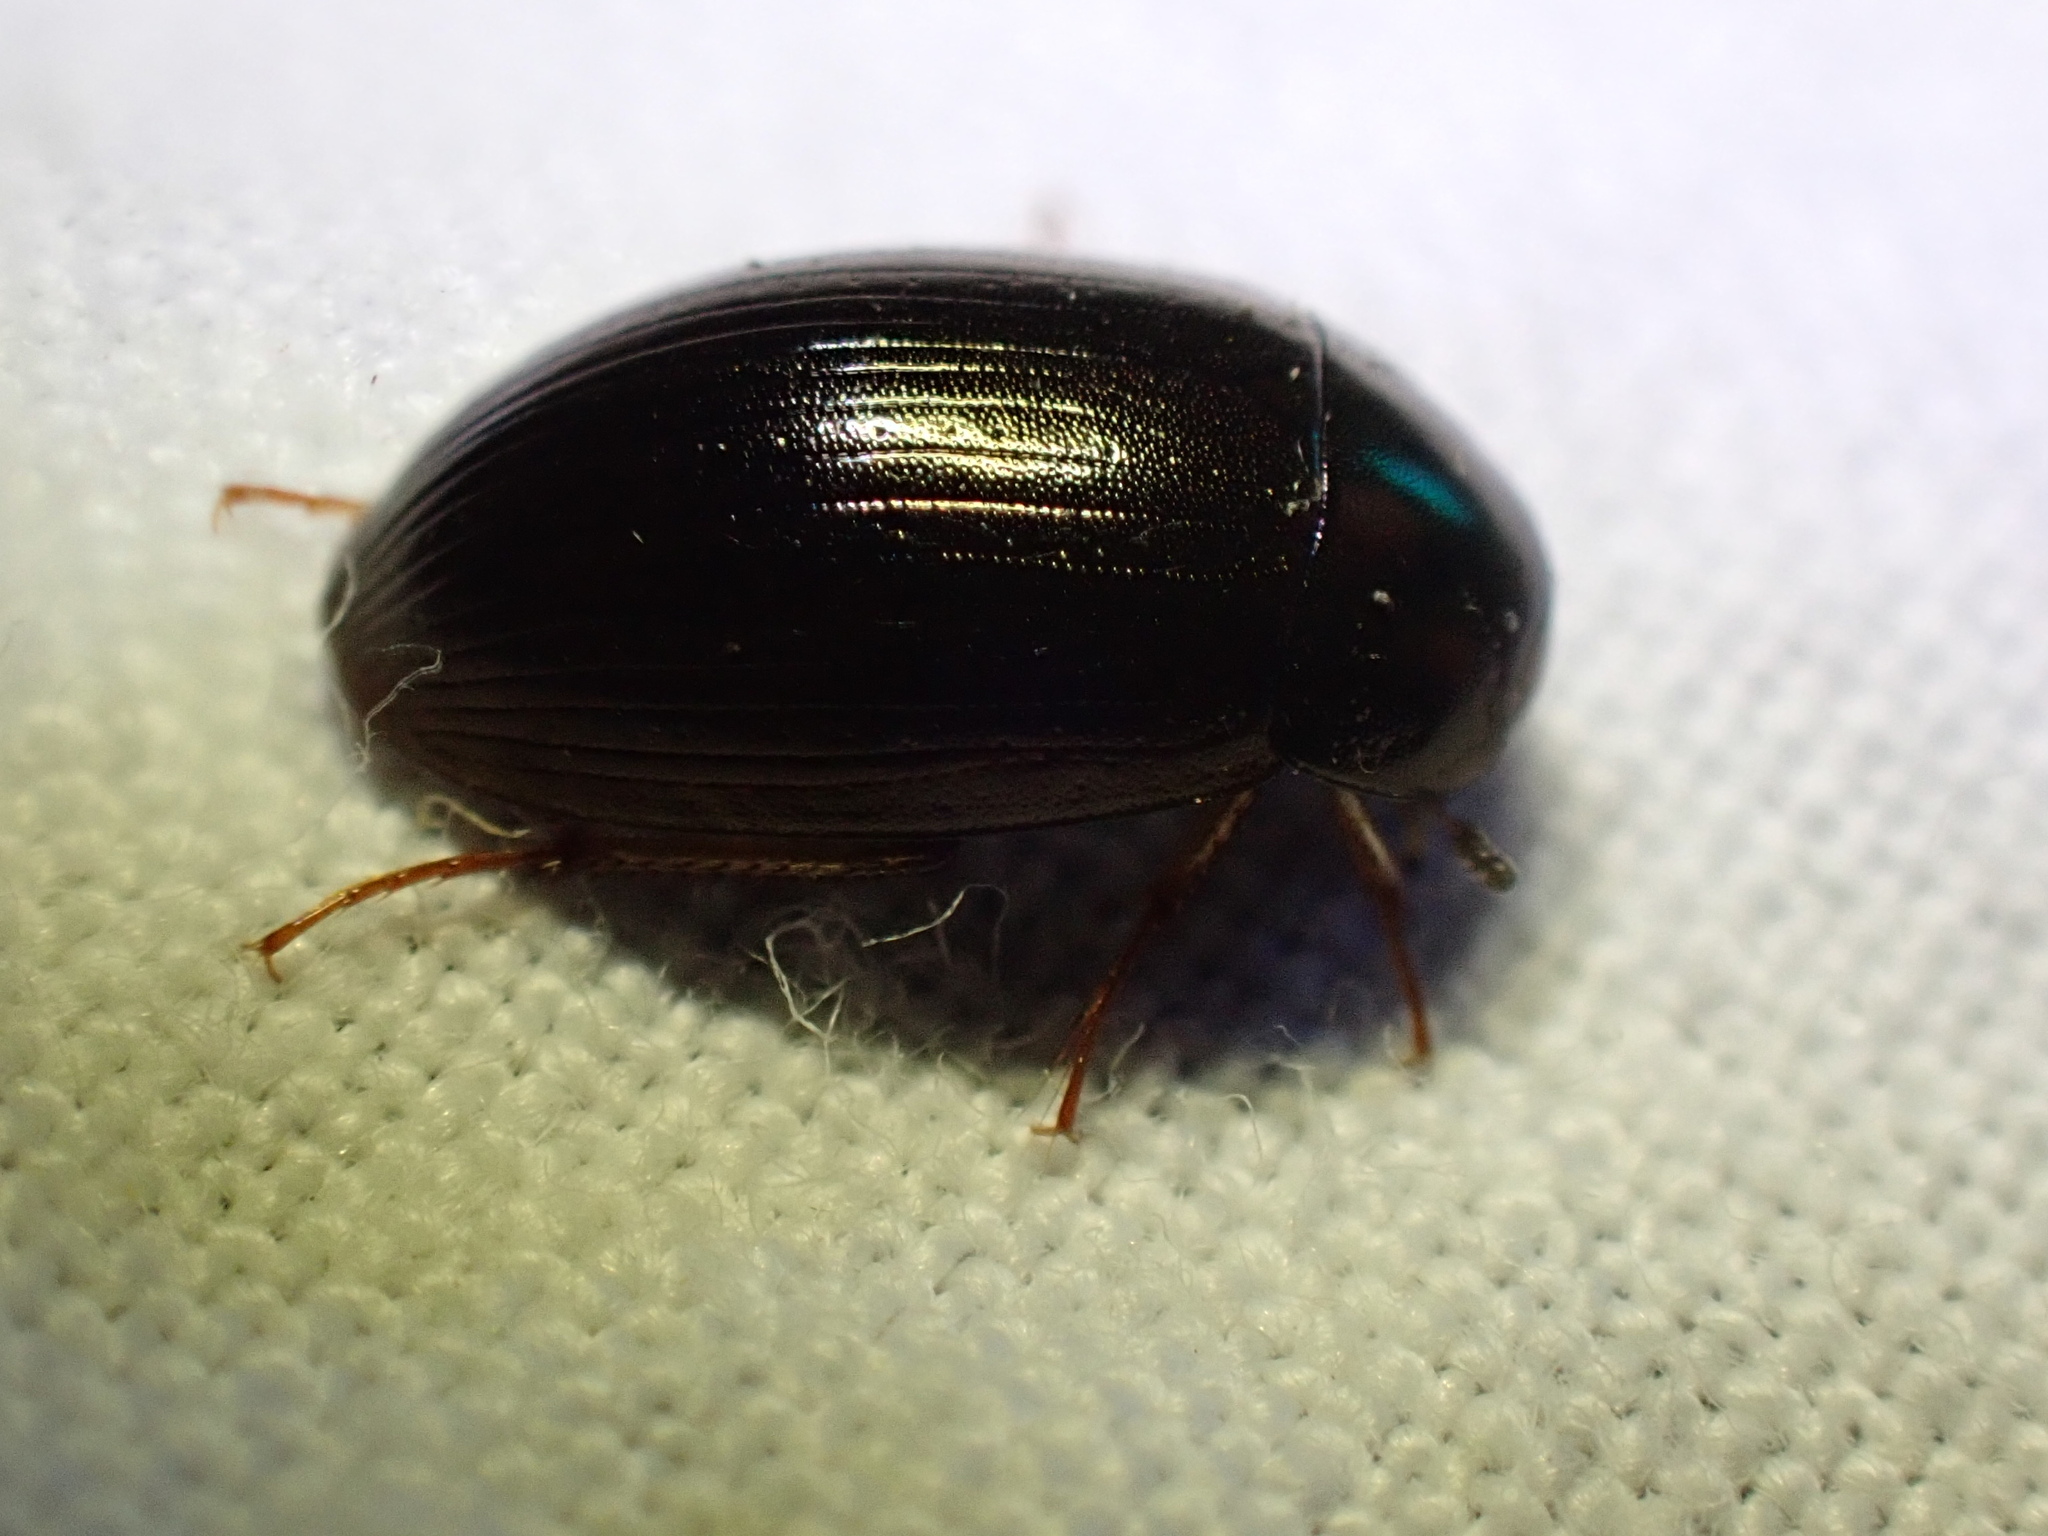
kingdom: Animalia
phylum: Arthropoda
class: Insecta
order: Coleoptera
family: Hydrophilidae
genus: Hydrobius
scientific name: Hydrobius
